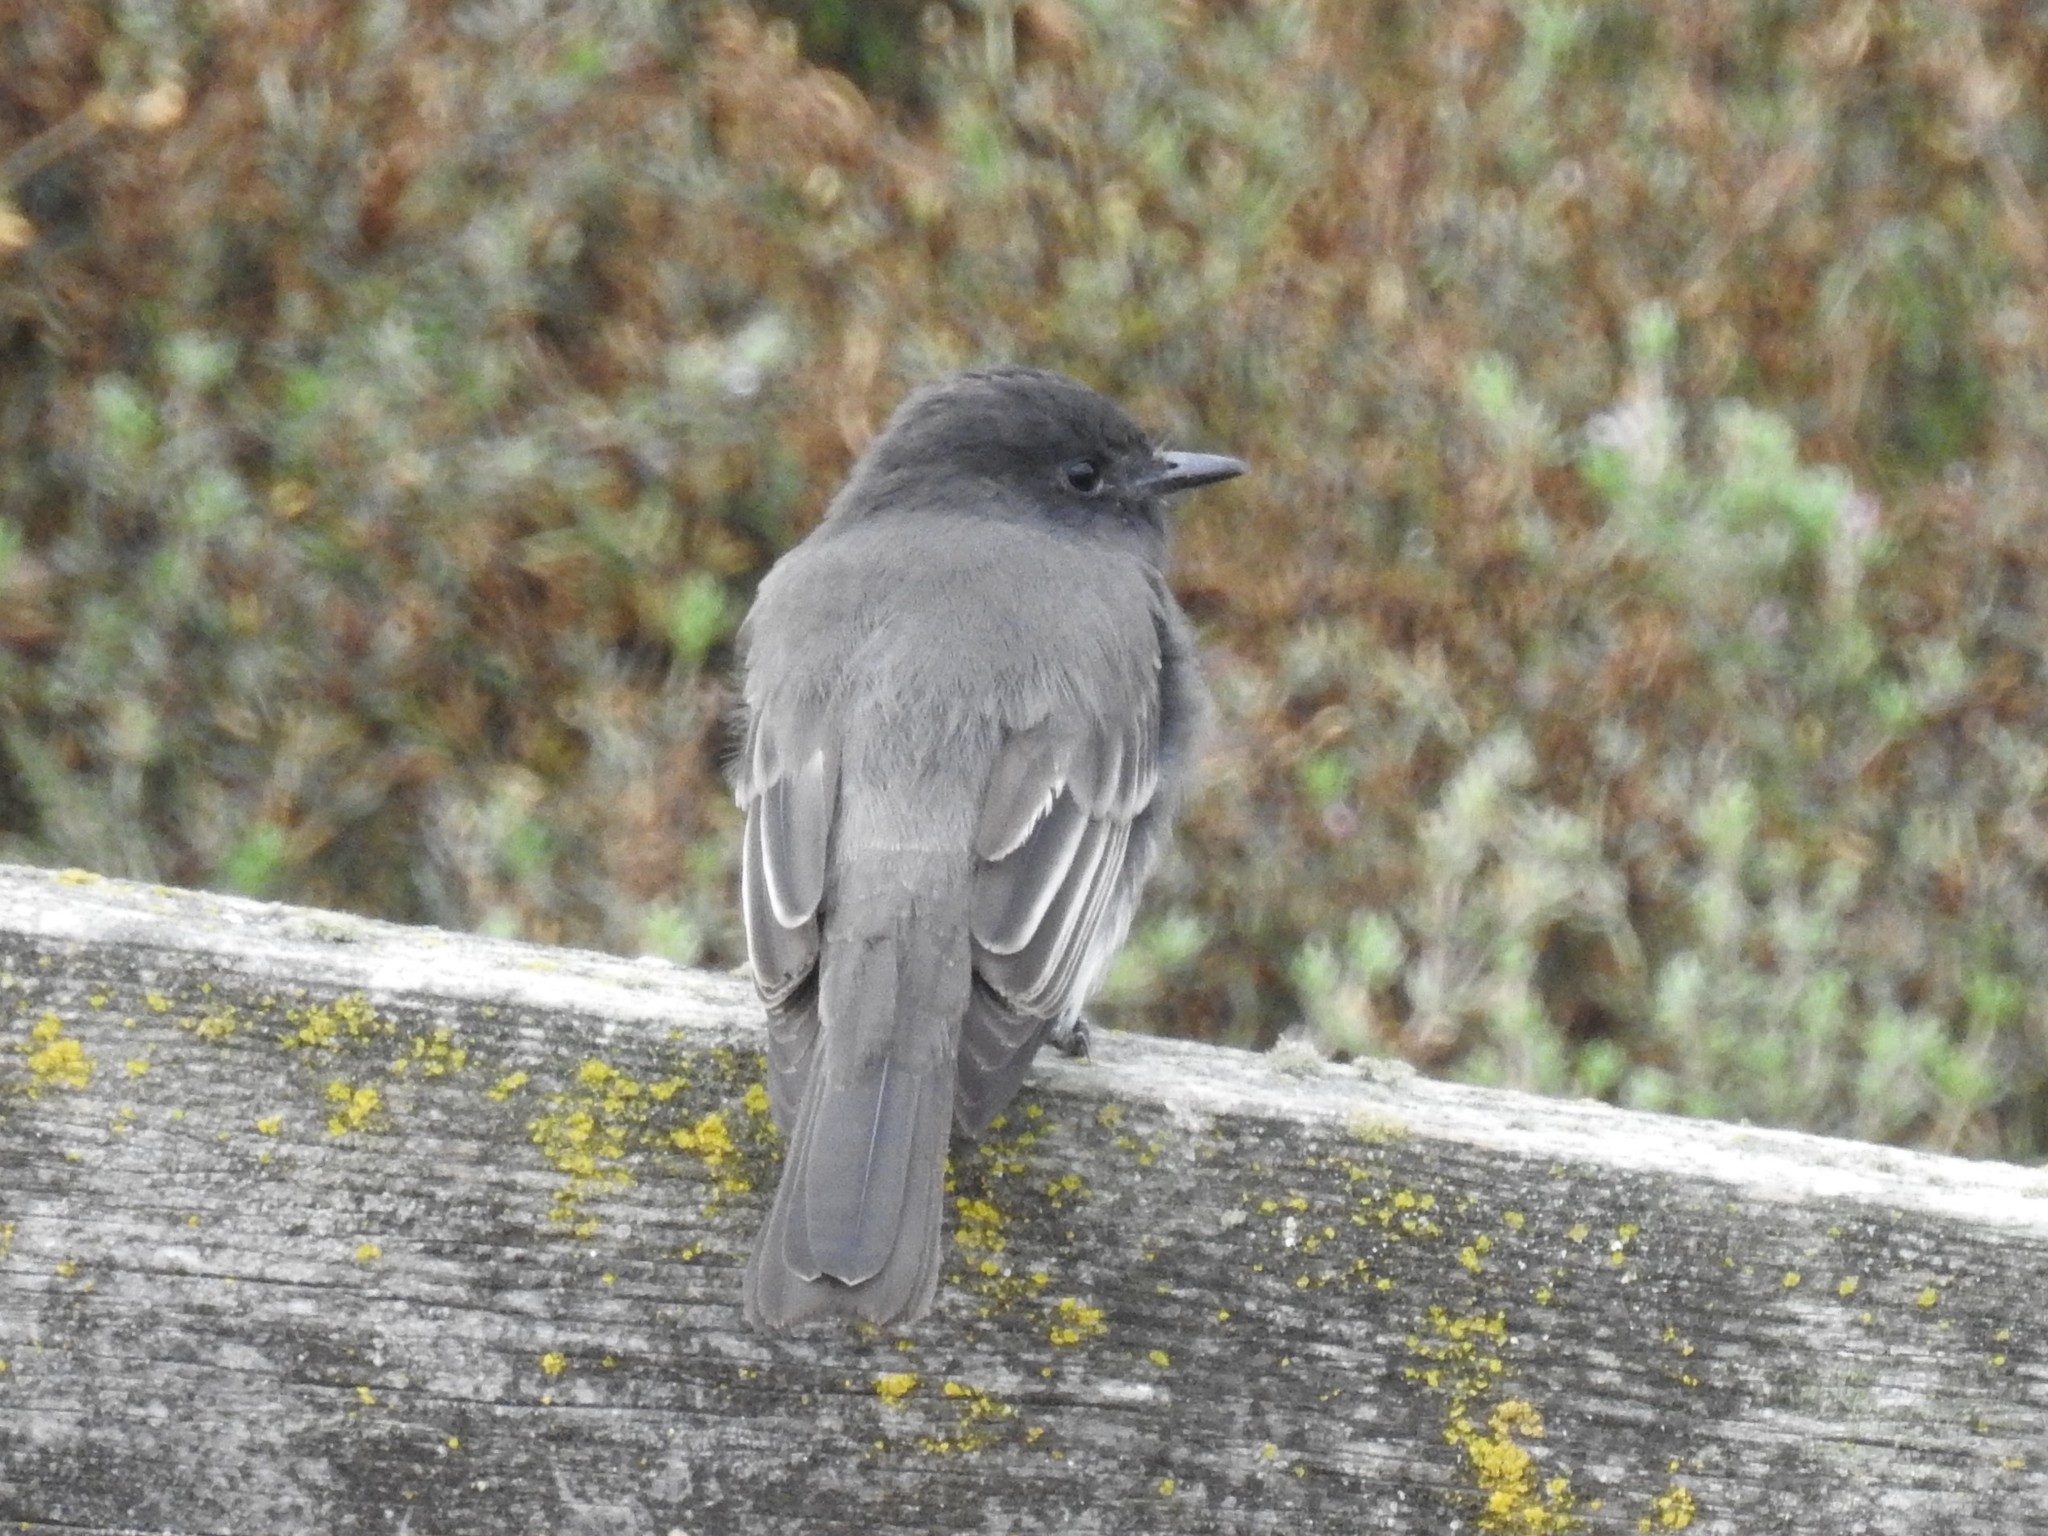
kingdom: Animalia
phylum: Chordata
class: Aves
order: Passeriformes
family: Tyrannidae
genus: Sayornis
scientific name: Sayornis nigricans
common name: Black phoebe
